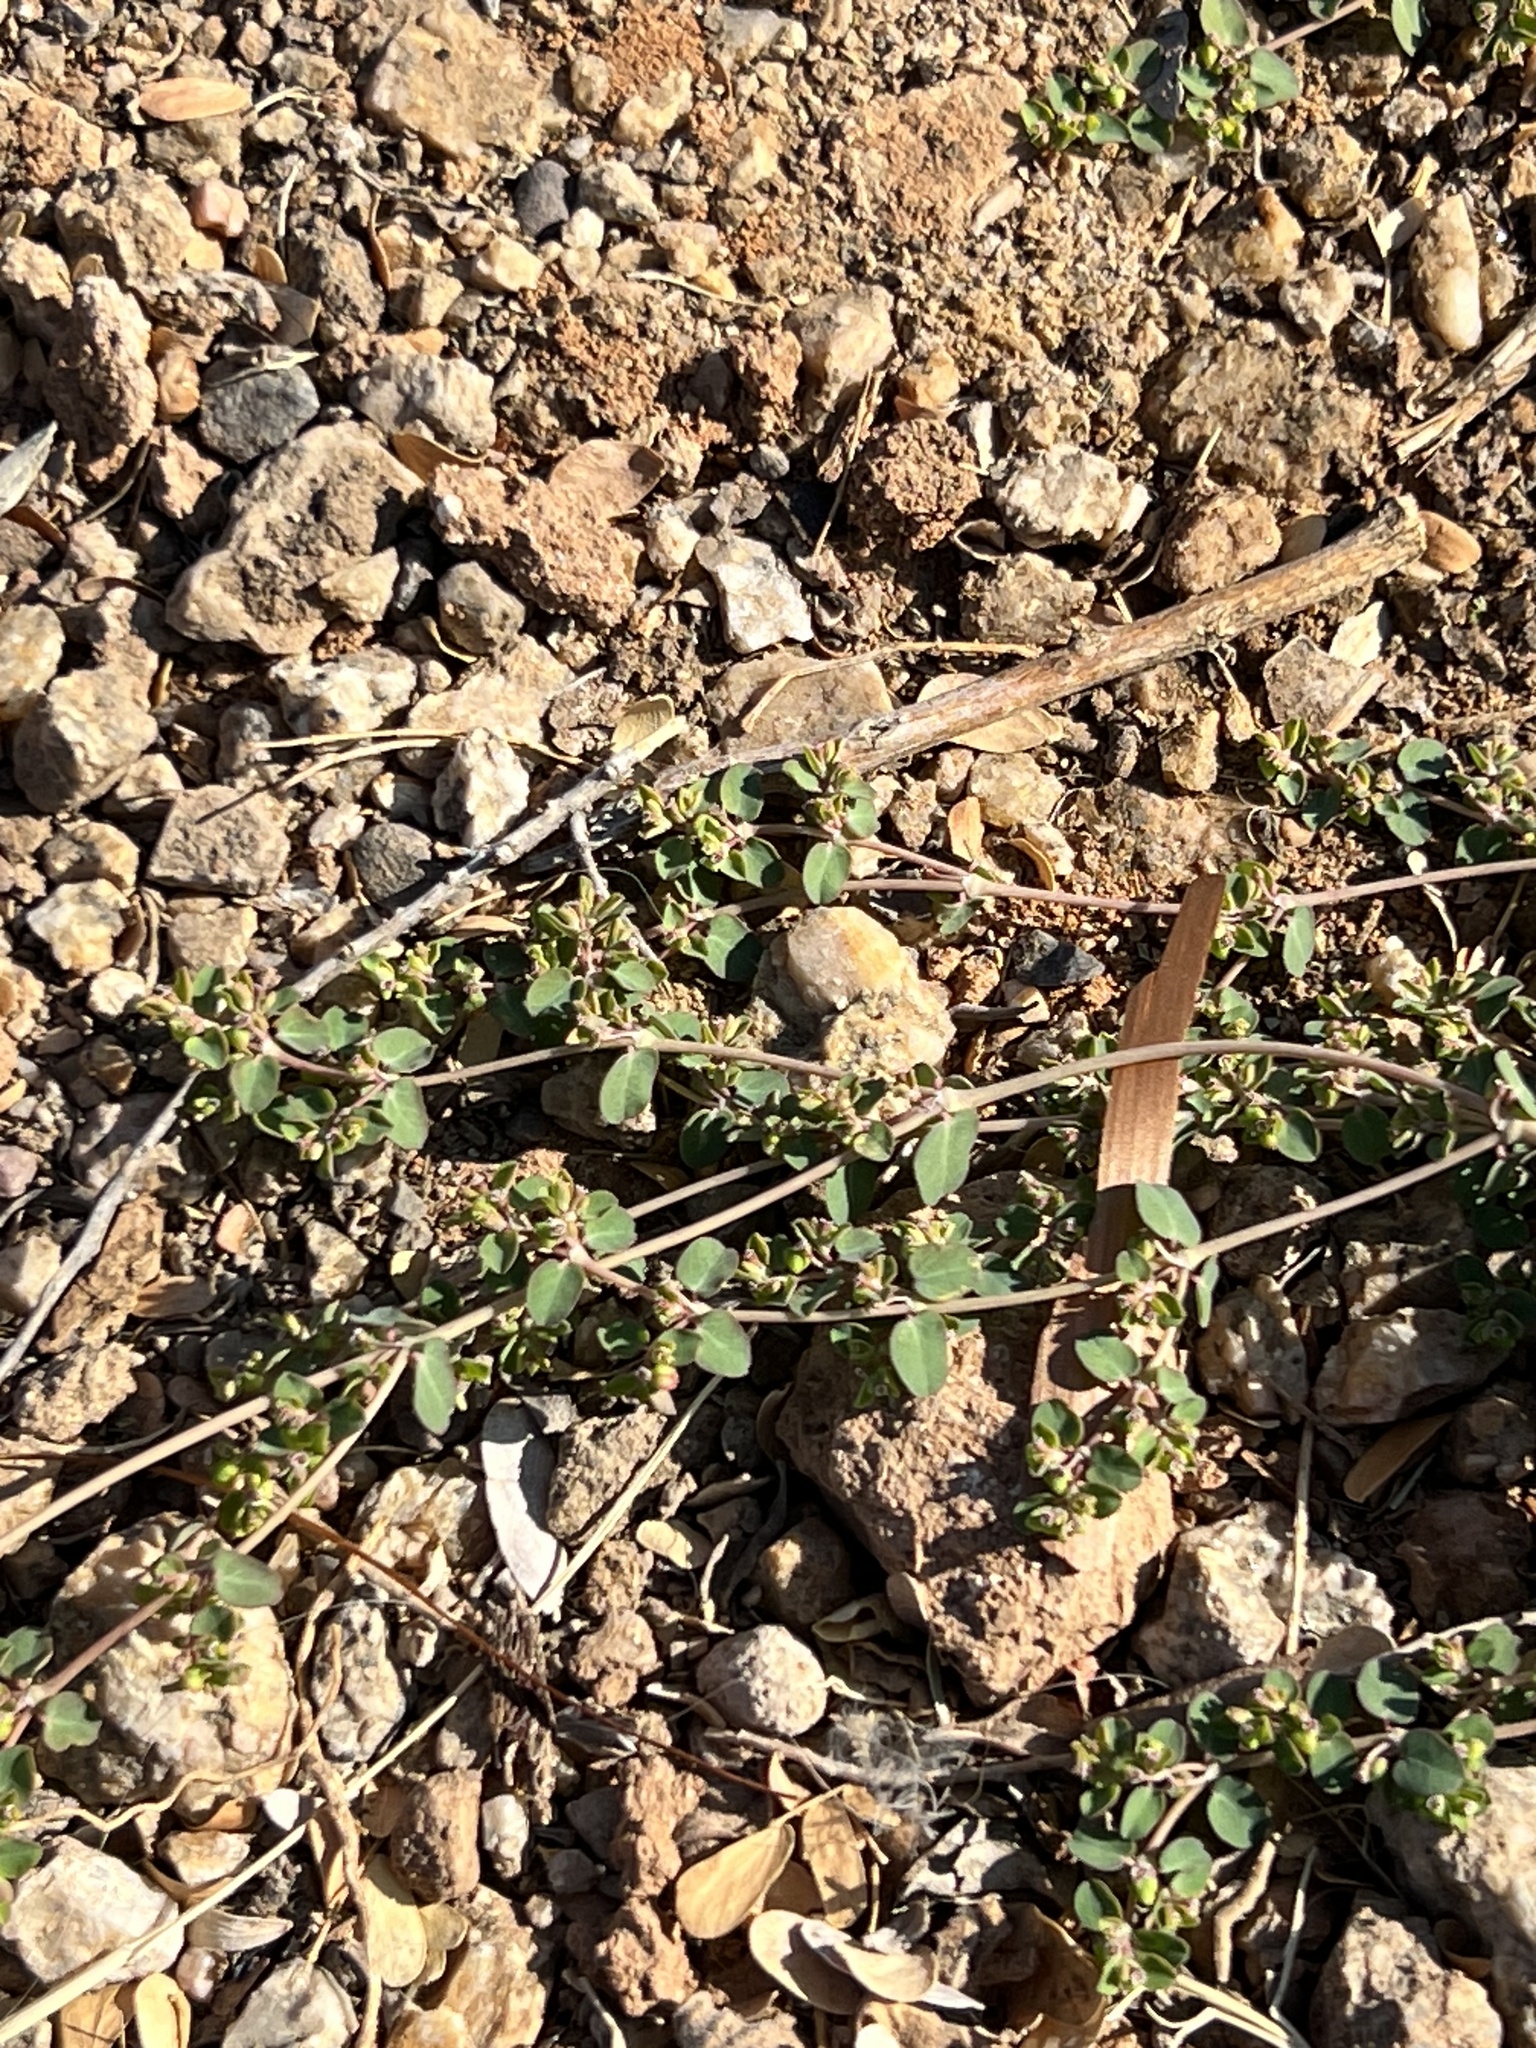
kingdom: Plantae
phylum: Tracheophyta
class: Magnoliopsida
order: Malpighiales
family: Euphorbiaceae
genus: Euphorbia
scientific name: Euphorbia serpens
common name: Matted sandmat
